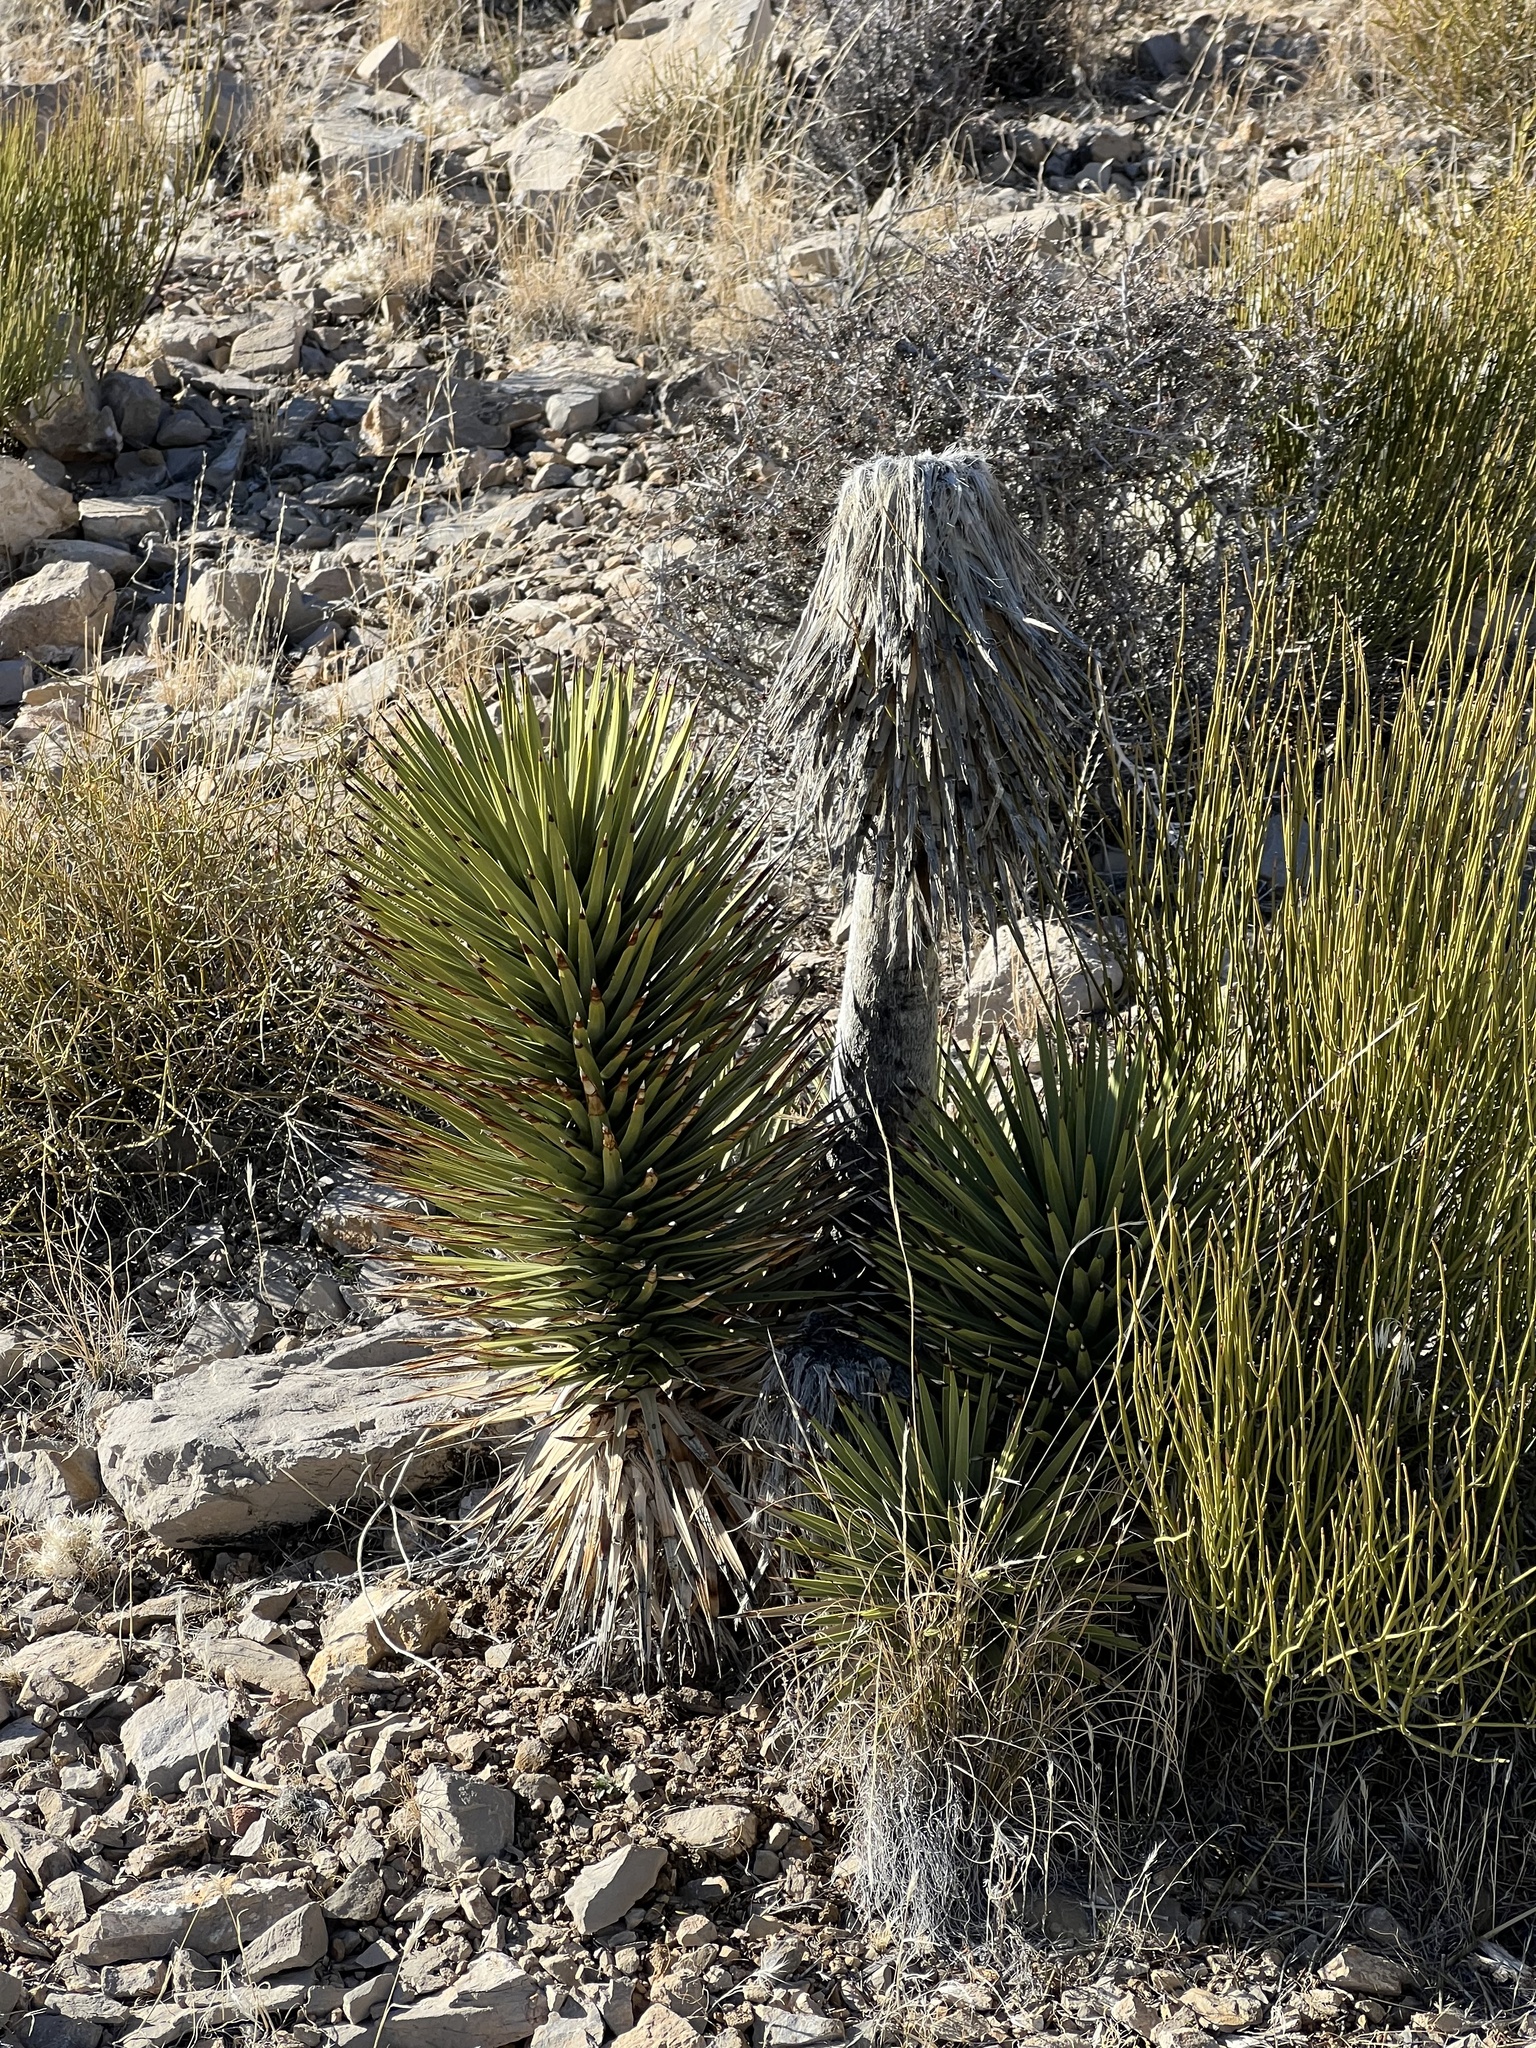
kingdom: Plantae
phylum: Tracheophyta
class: Liliopsida
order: Asparagales
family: Asparagaceae
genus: Yucca
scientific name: Yucca brevifolia
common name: Joshua tree
